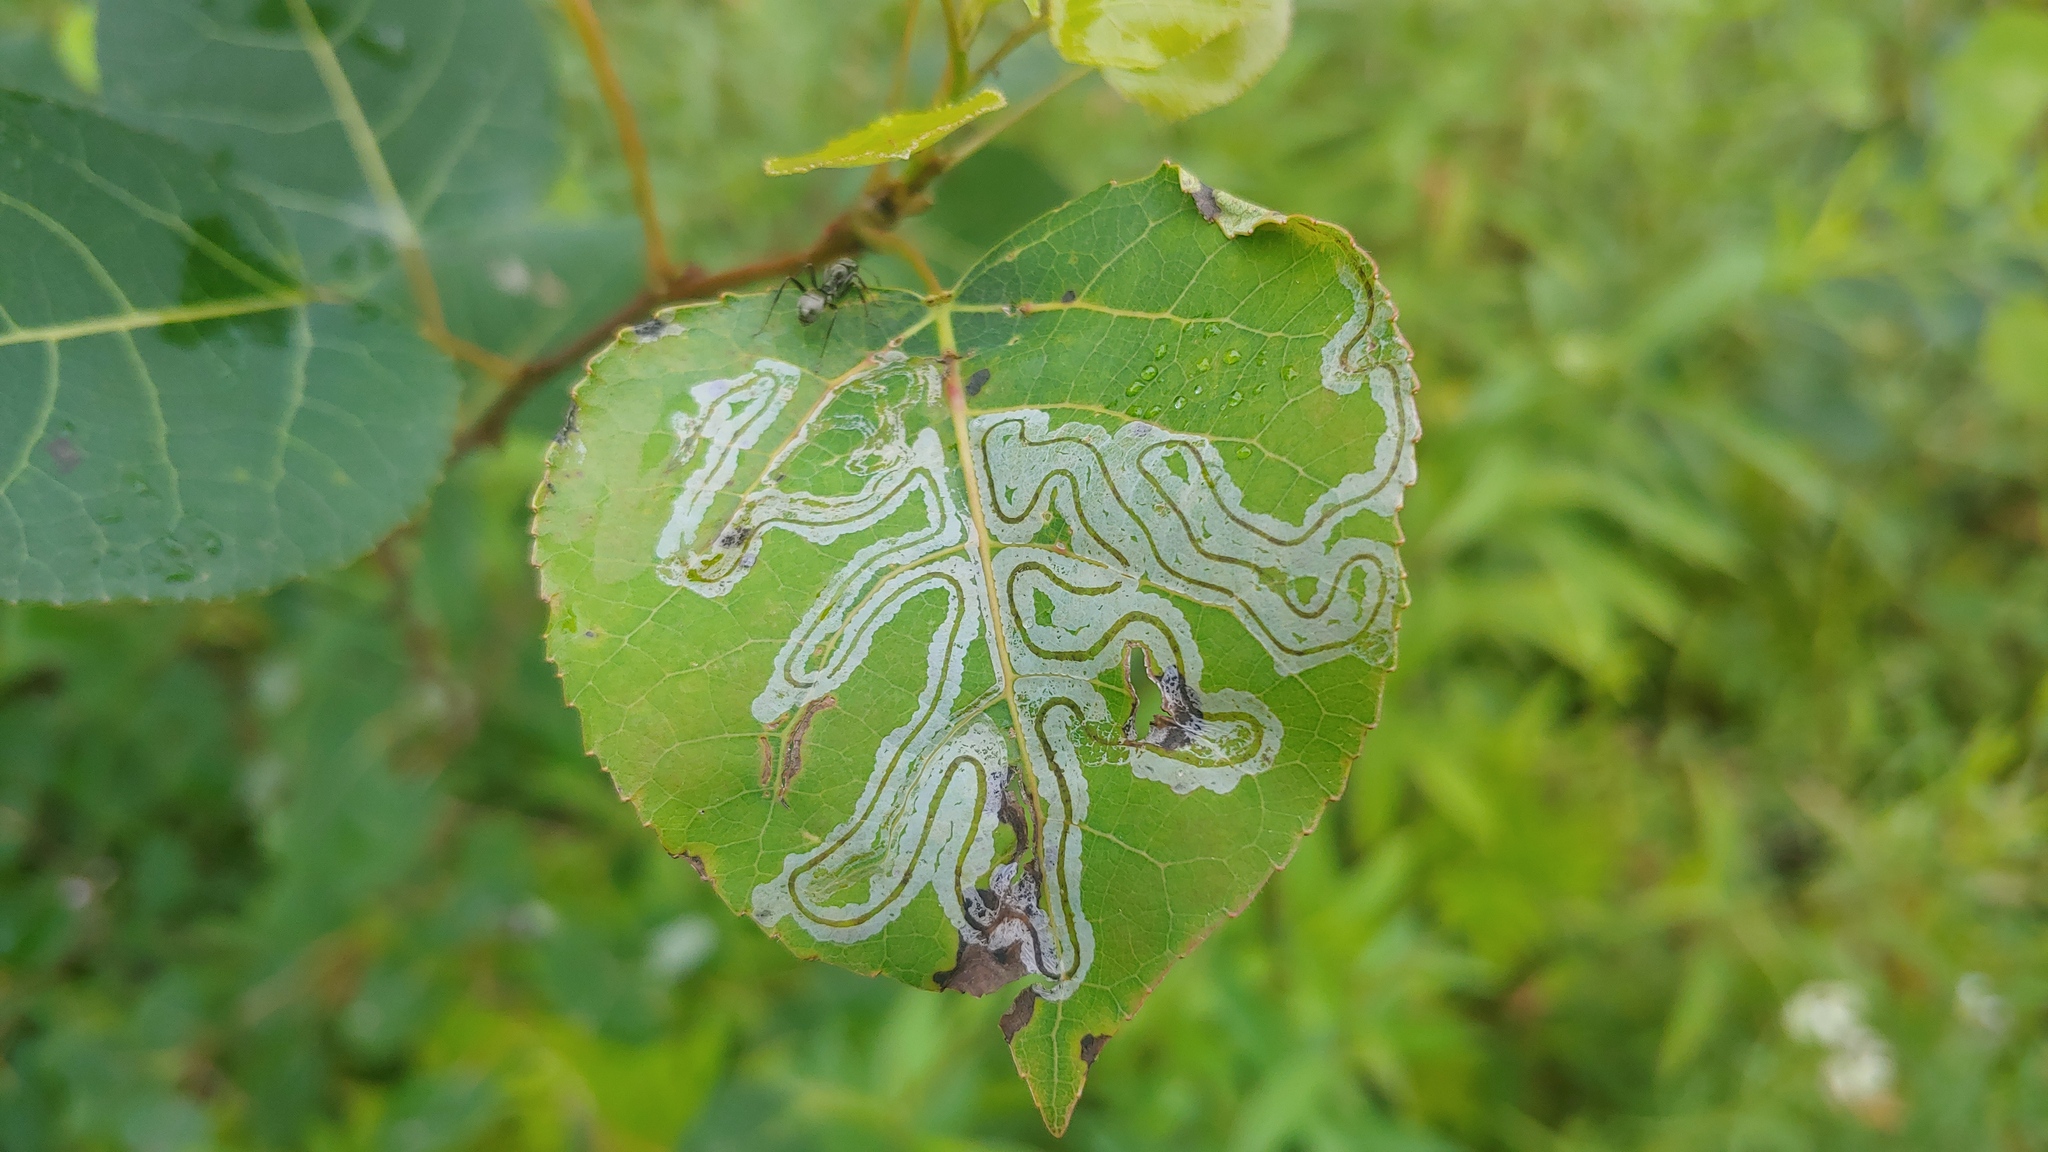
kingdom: Animalia
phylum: Arthropoda
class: Insecta
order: Lepidoptera
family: Gracillariidae
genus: Phyllocnistis
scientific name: Phyllocnistis populiella
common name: Aspen serpentine leafminer moth
